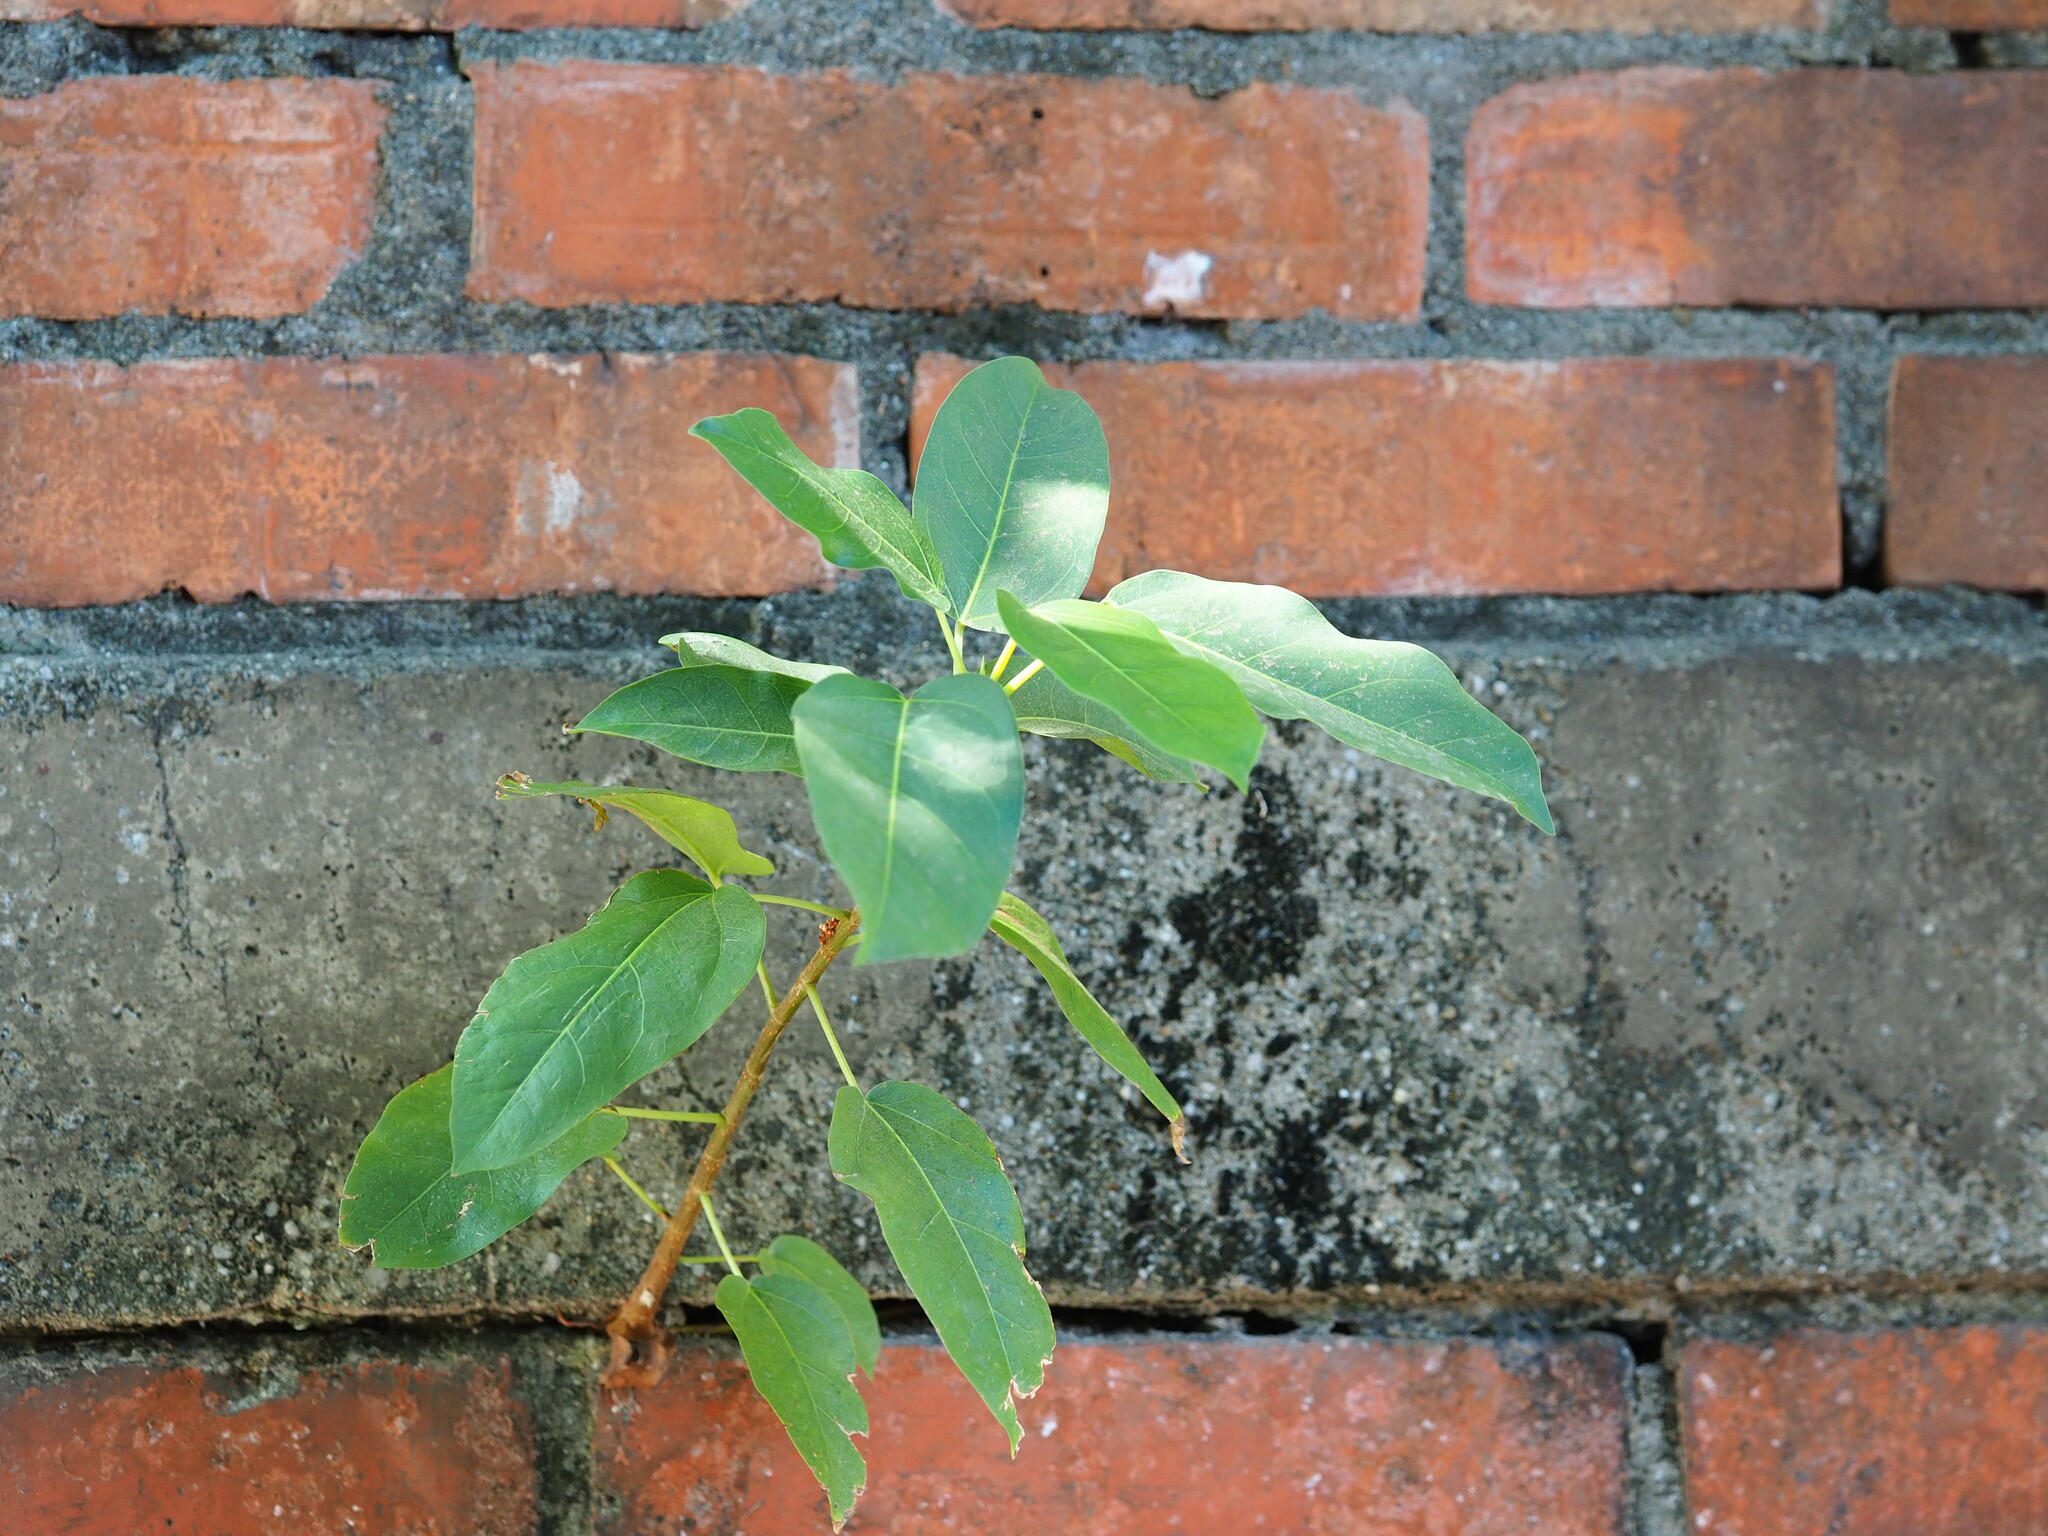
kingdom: Plantae
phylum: Tracheophyta
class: Magnoliopsida
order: Rosales
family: Moraceae
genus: Ficus
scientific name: Ficus subpisocarpa
